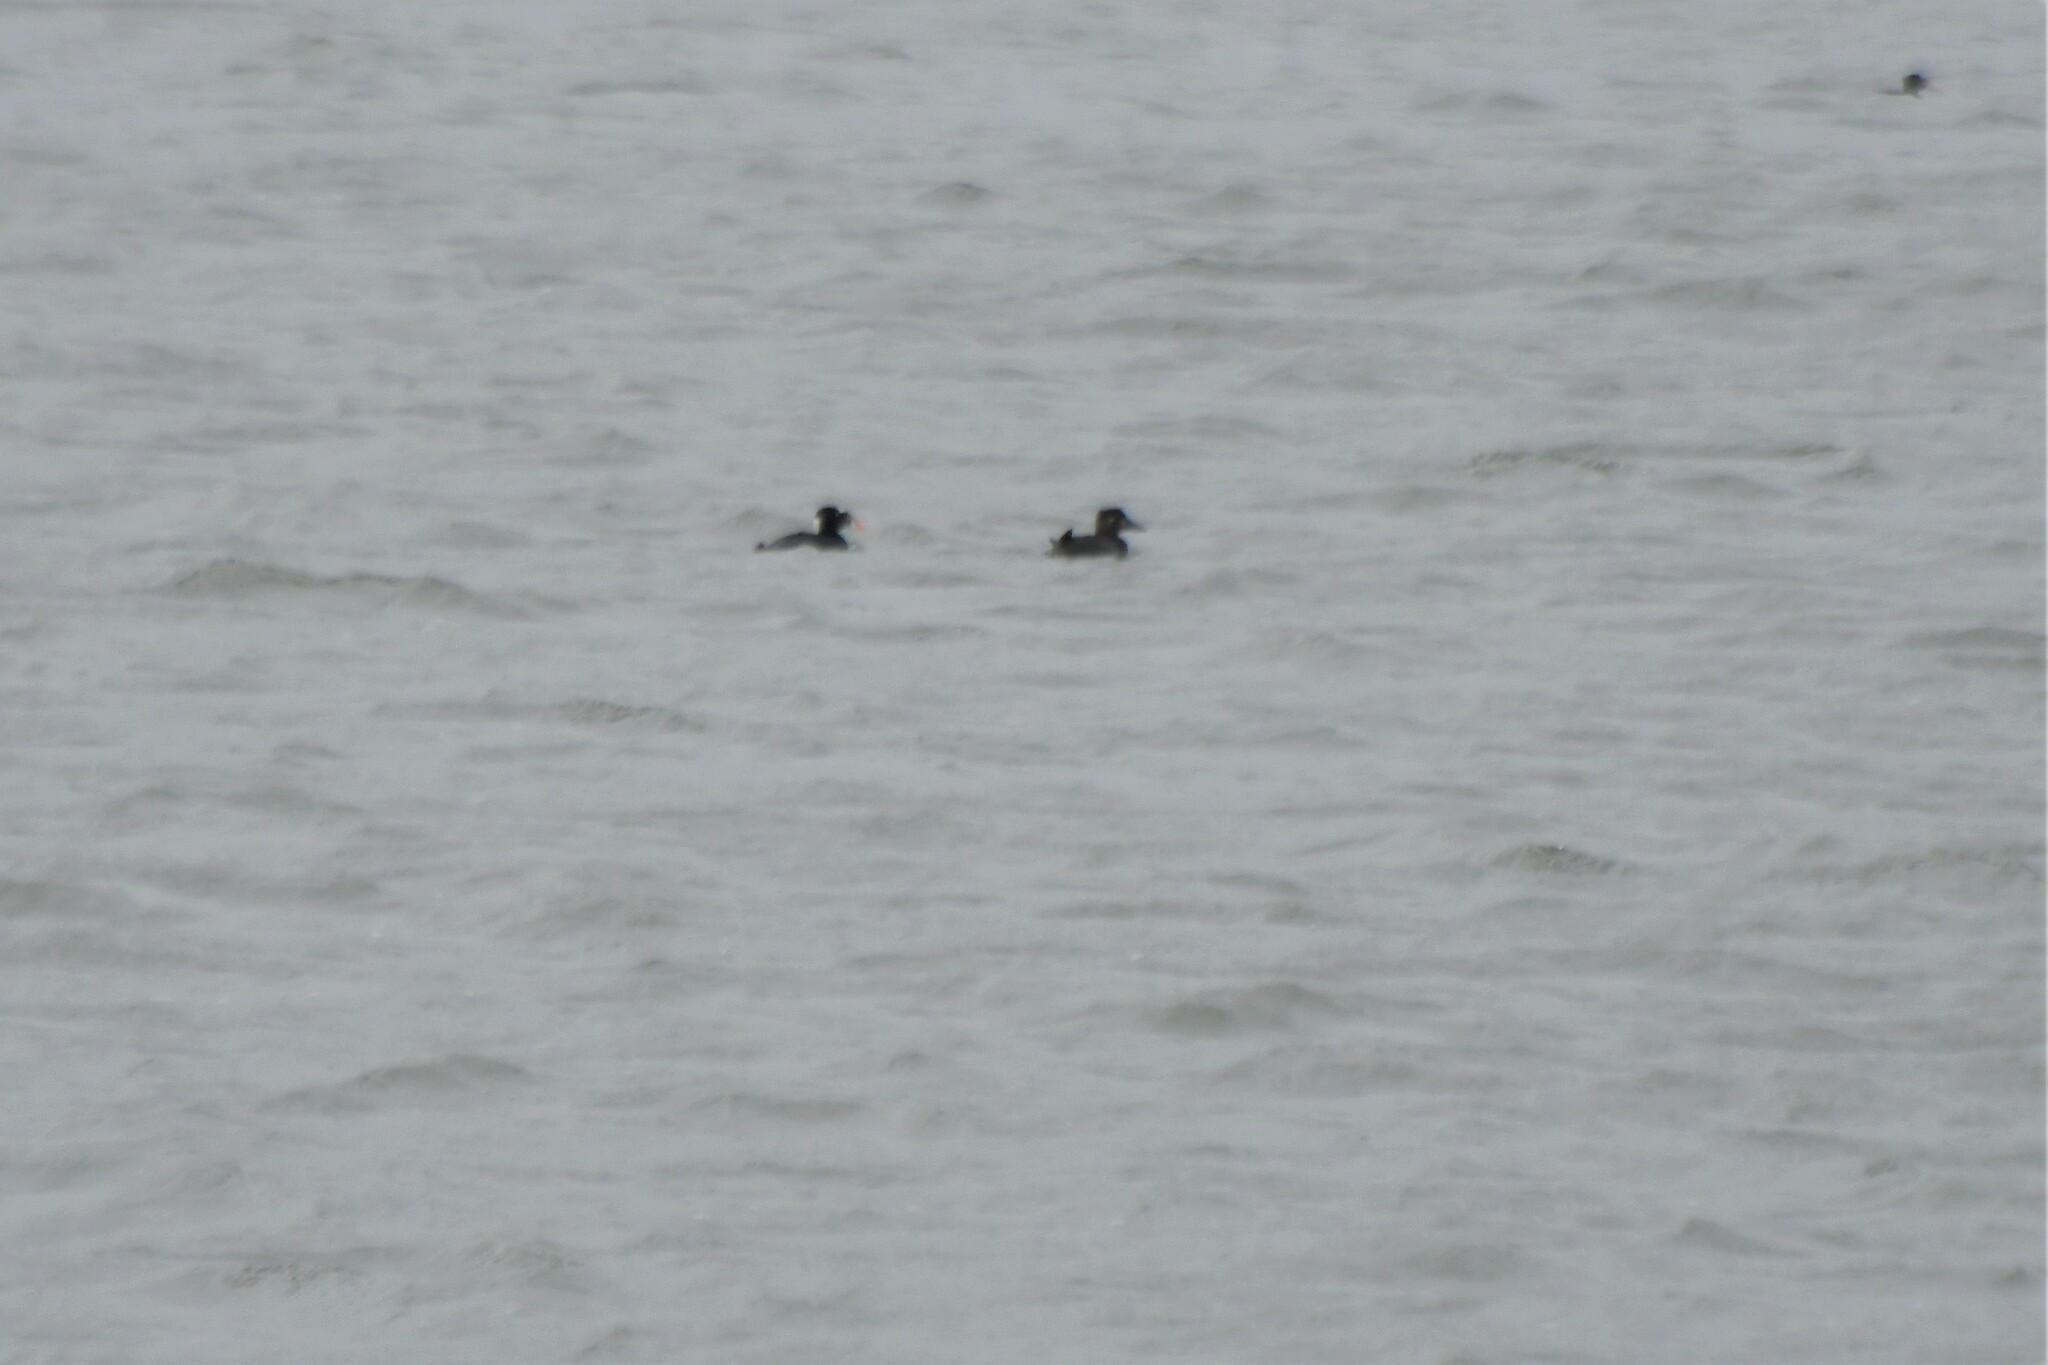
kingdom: Animalia
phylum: Chordata
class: Aves
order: Anseriformes
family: Anatidae
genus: Melanitta
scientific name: Melanitta perspicillata
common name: Surf scoter
